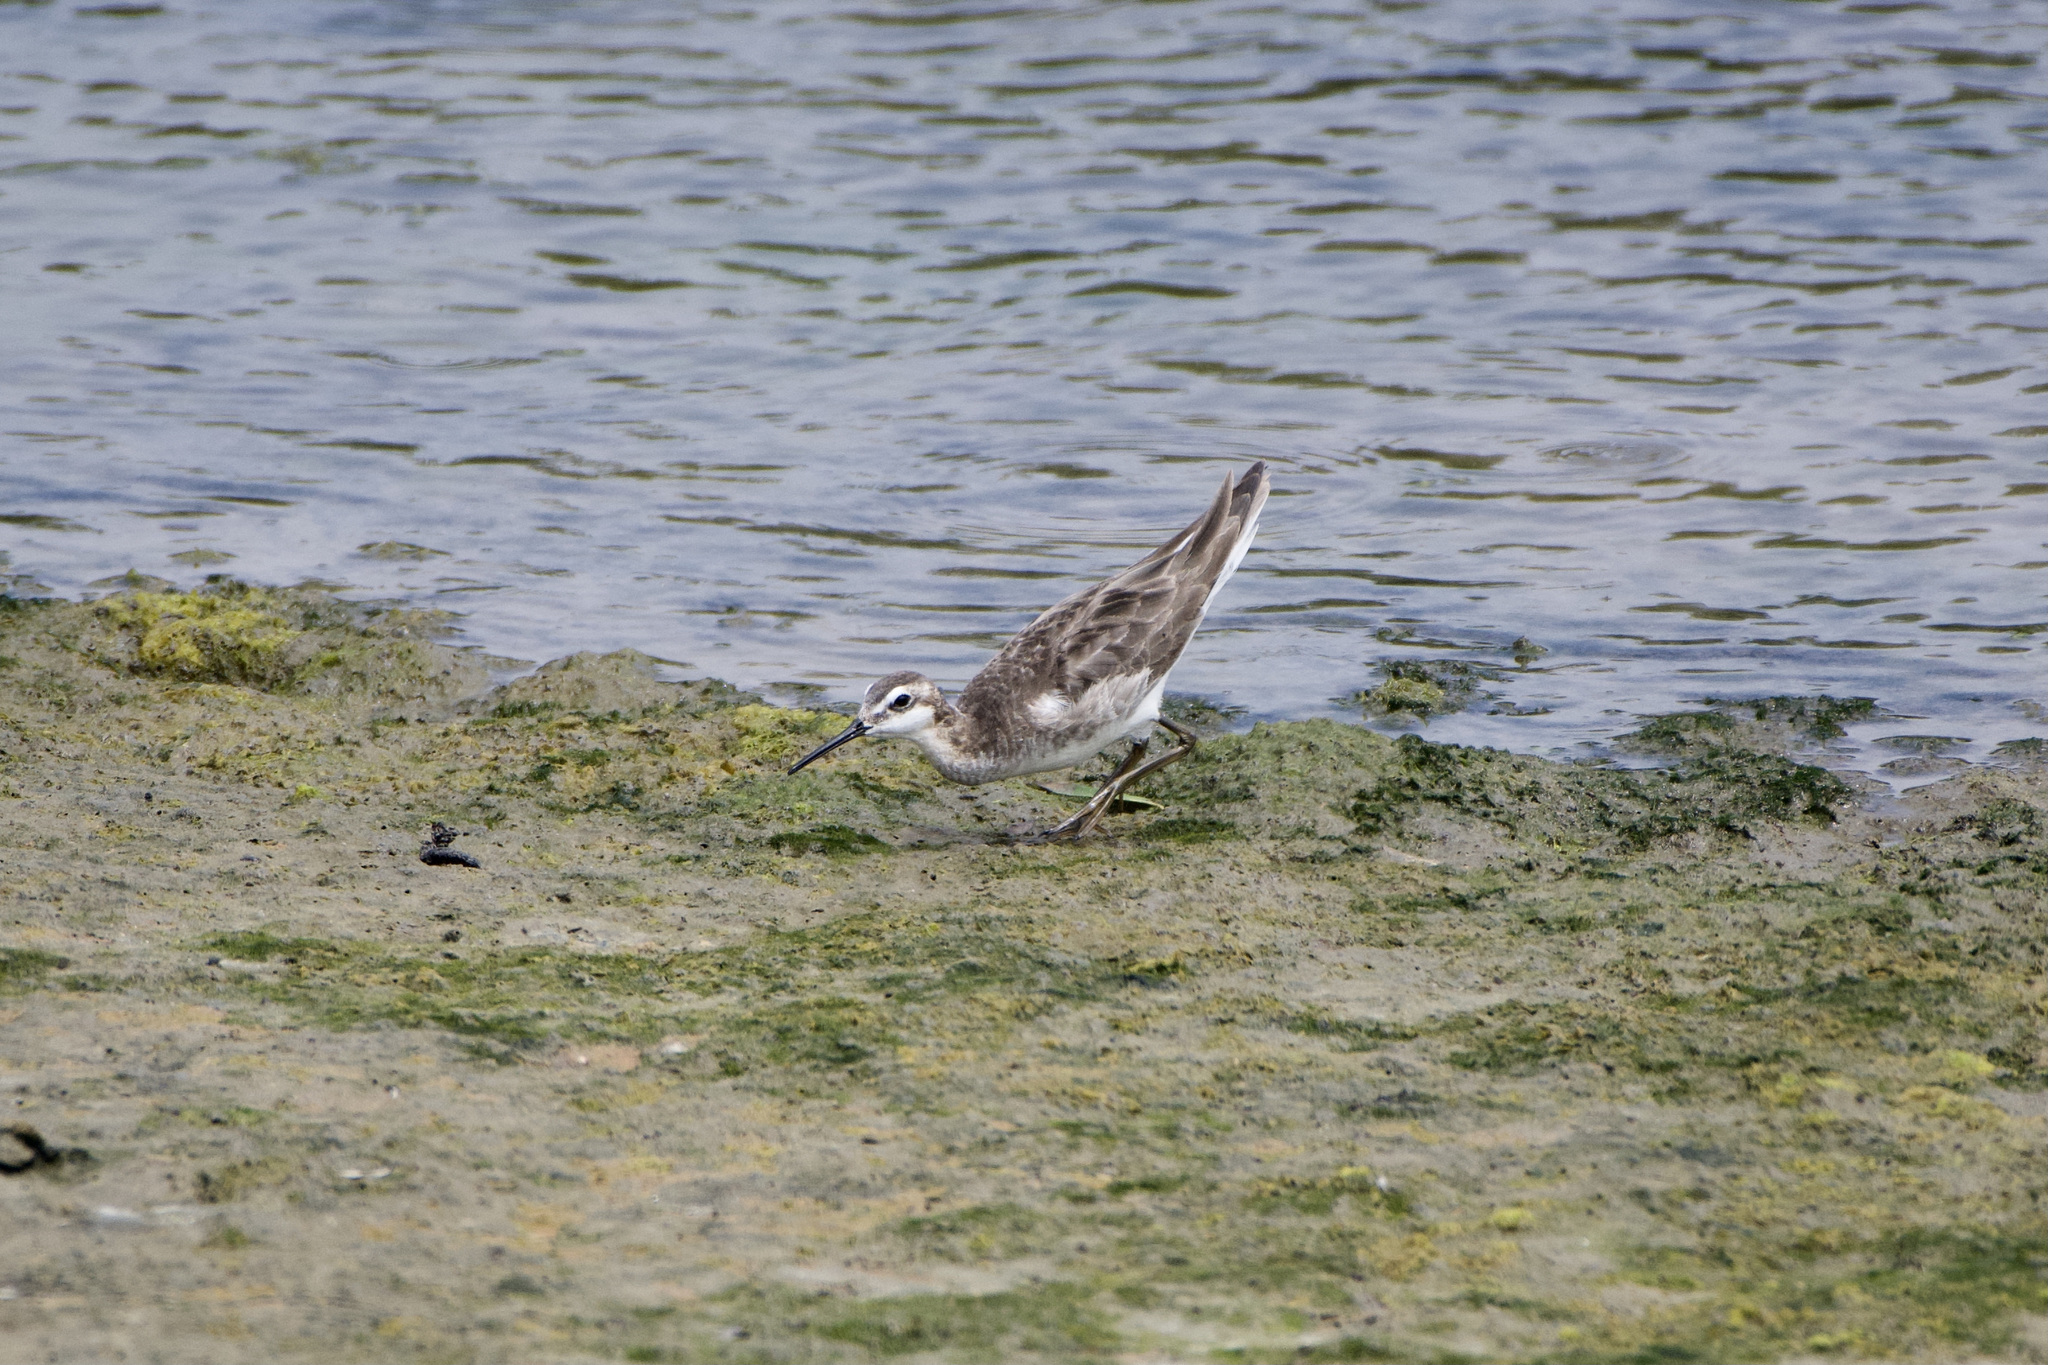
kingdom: Animalia
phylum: Chordata
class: Aves
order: Charadriiformes
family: Scolopacidae
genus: Phalaropus
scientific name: Phalaropus tricolor
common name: Wilson's phalarope
